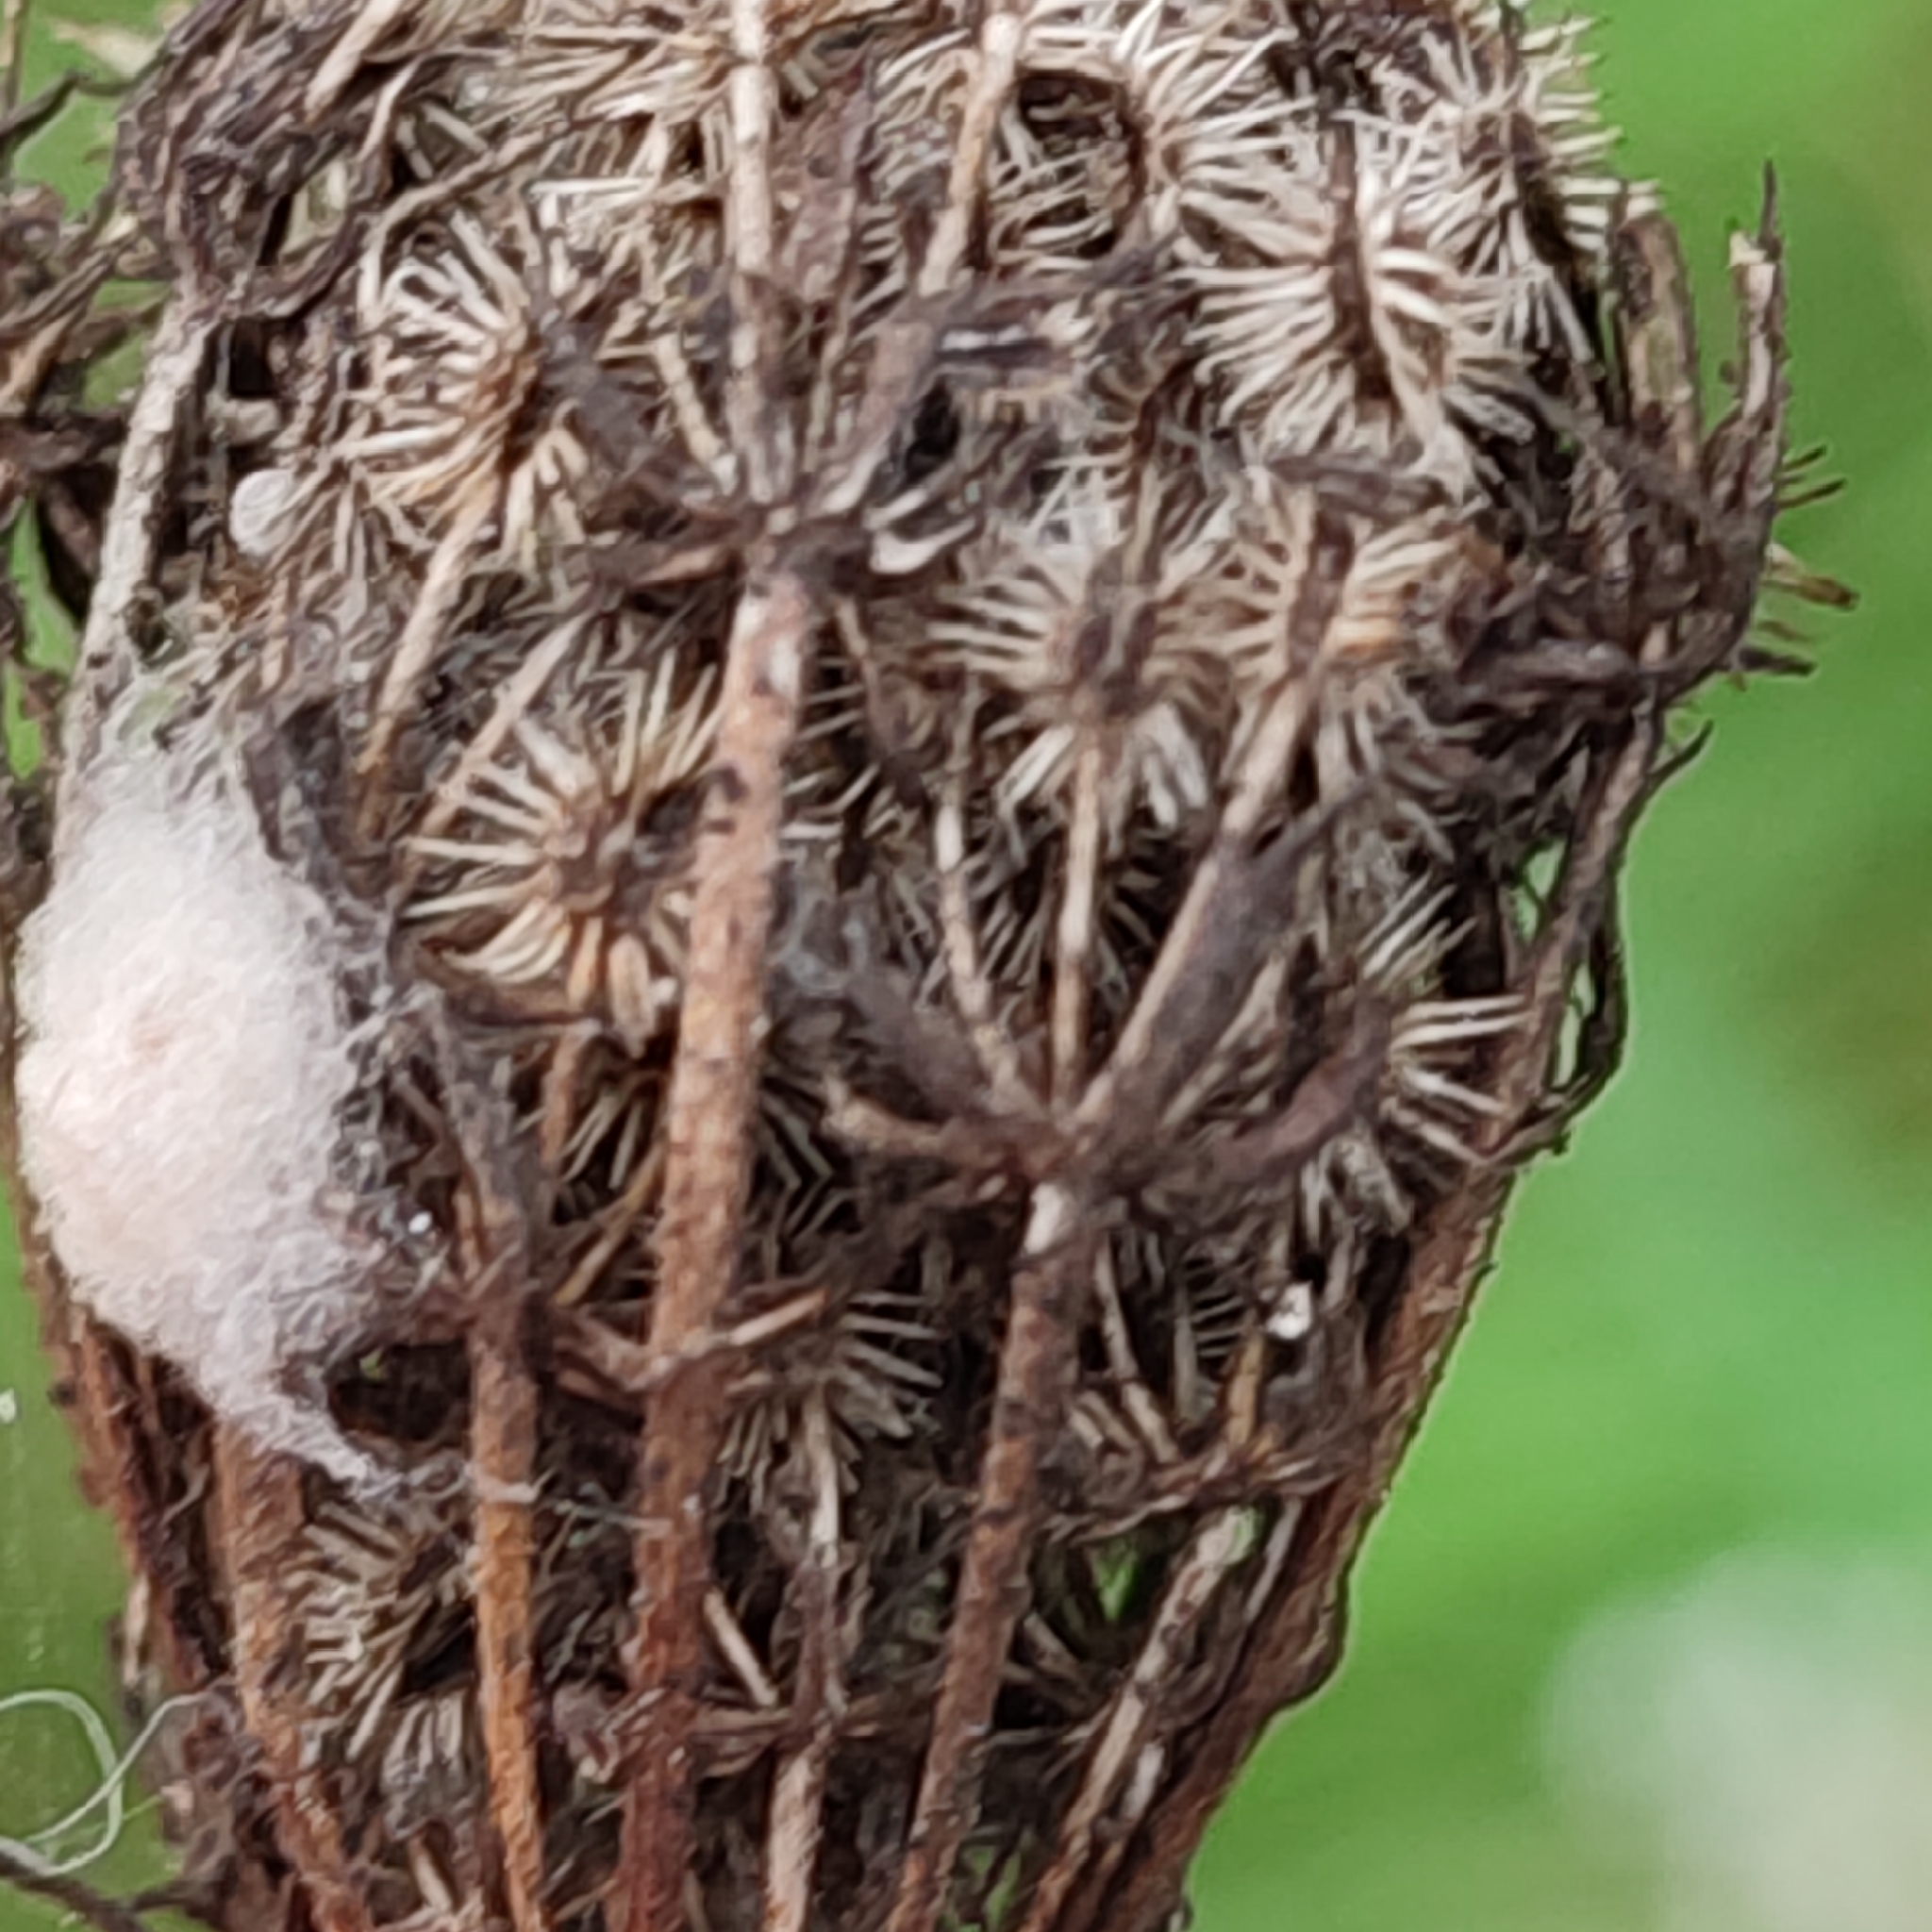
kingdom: Plantae
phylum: Tracheophyta
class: Magnoliopsida
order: Apiales
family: Apiaceae
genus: Daucus
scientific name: Daucus carota
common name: Wild carrot
